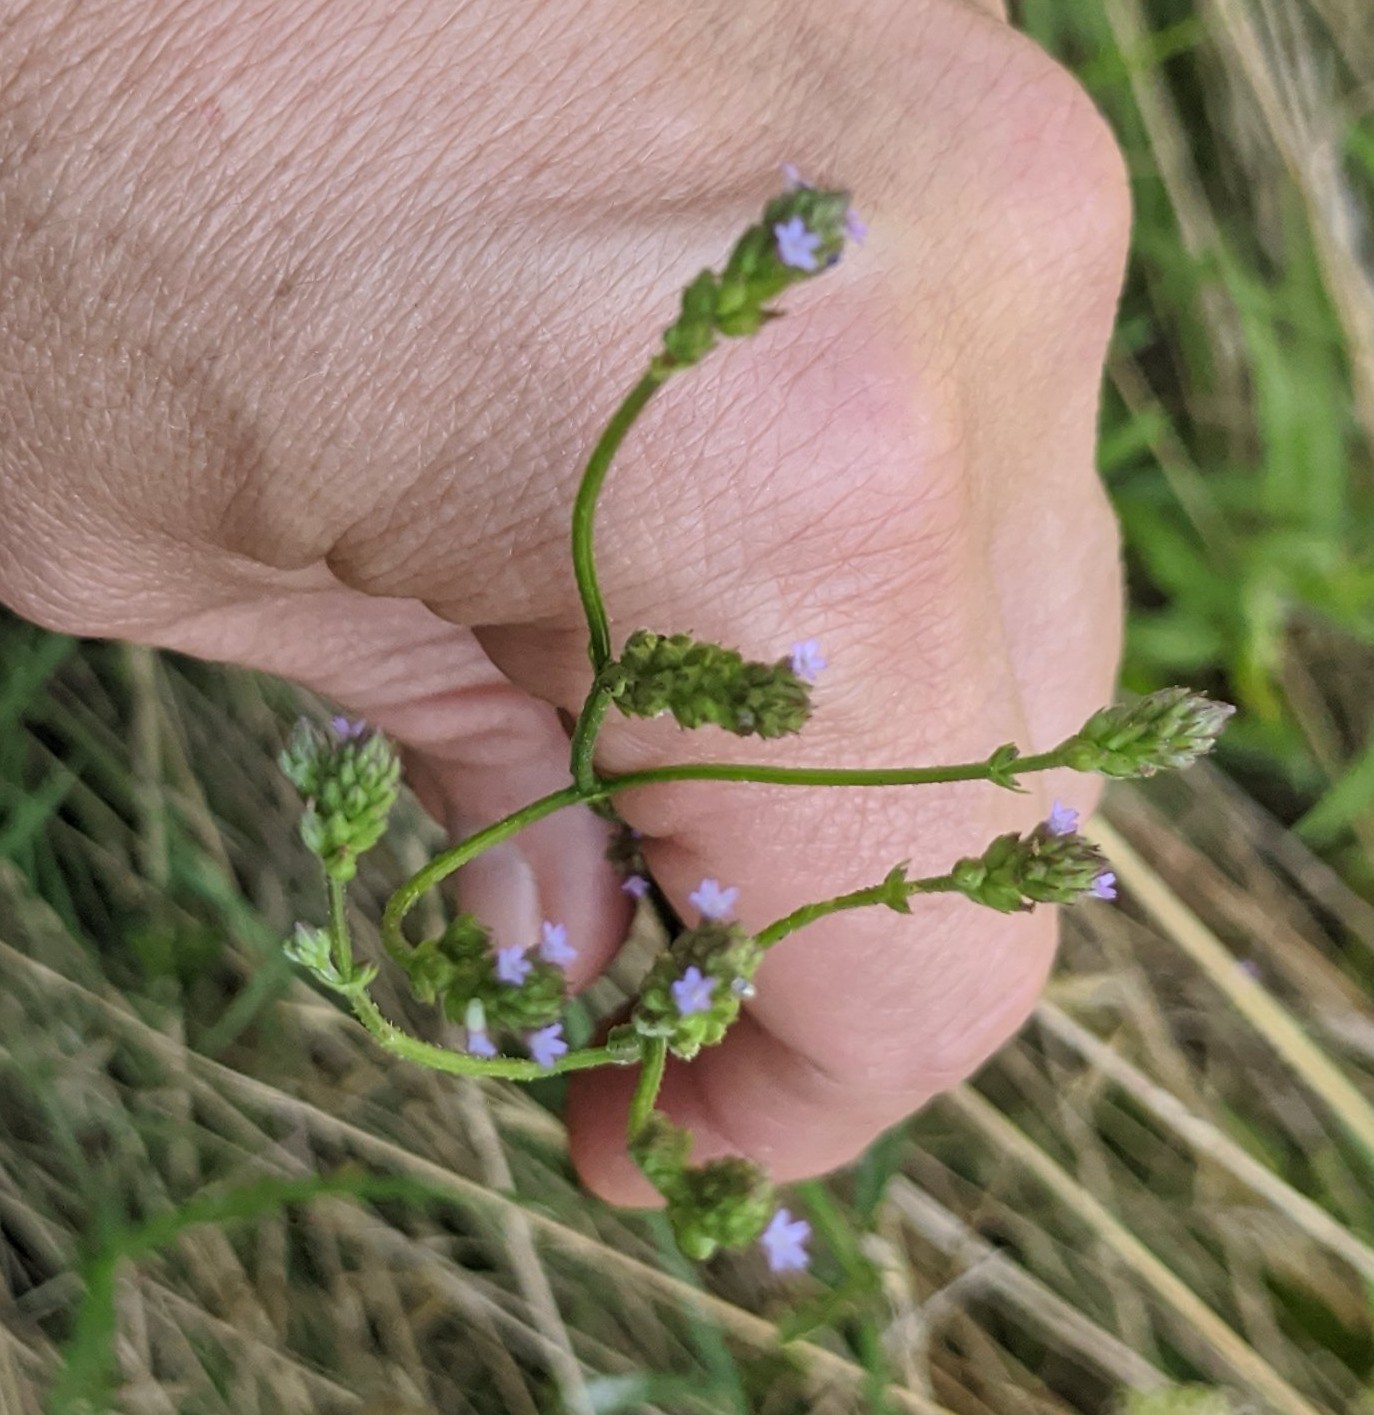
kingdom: Plantae
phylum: Tracheophyta
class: Magnoliopsida
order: Lamiales
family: Verbenaceae
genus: Verbena
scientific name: Verbena brasiliensis
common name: Brazilian vervain
